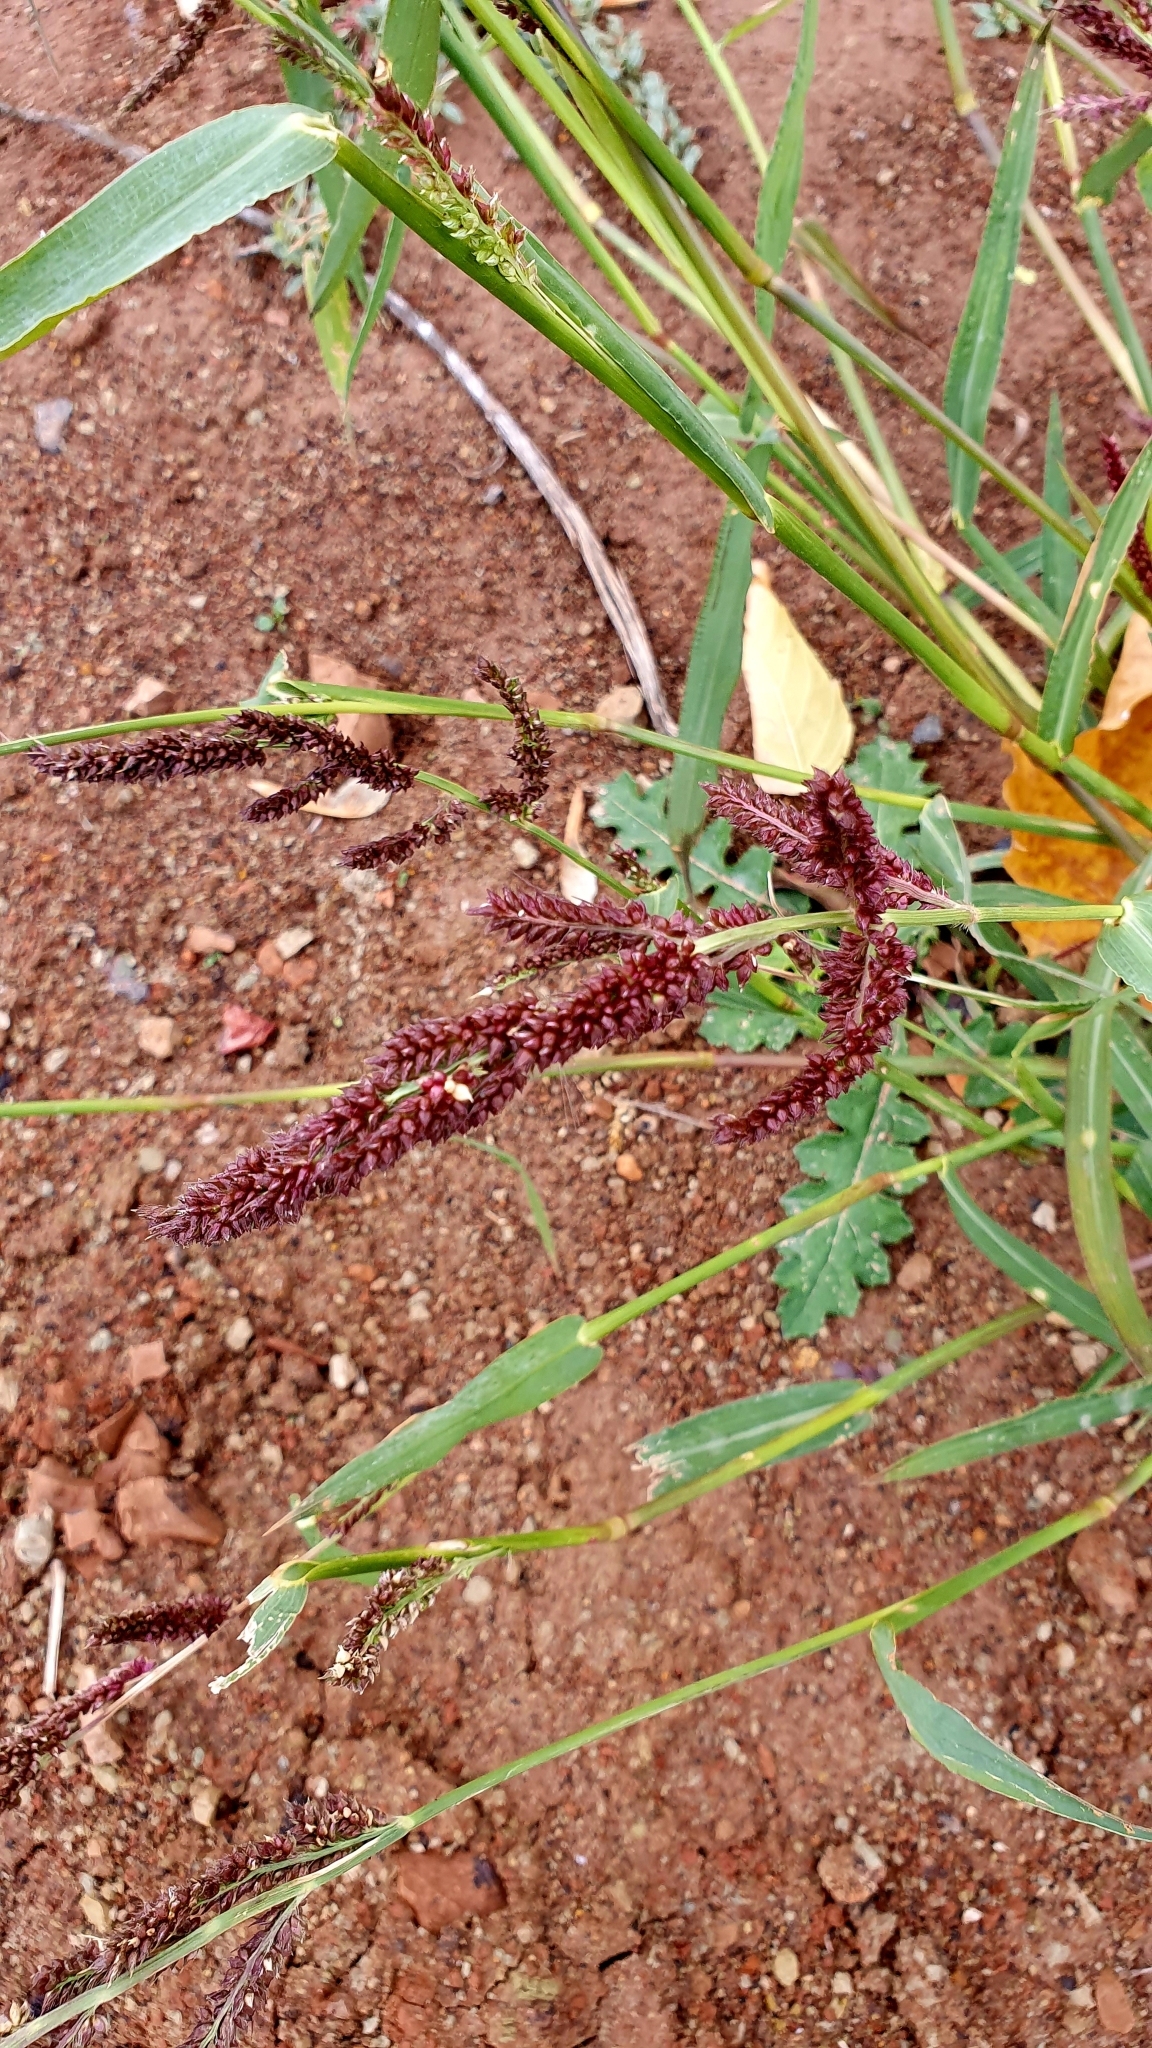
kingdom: Plantae
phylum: Tracheophyta
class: Liliopsida
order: Poales
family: Poaceae
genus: Echinochloa
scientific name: Echinochloa crus-galli
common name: Cockspur
